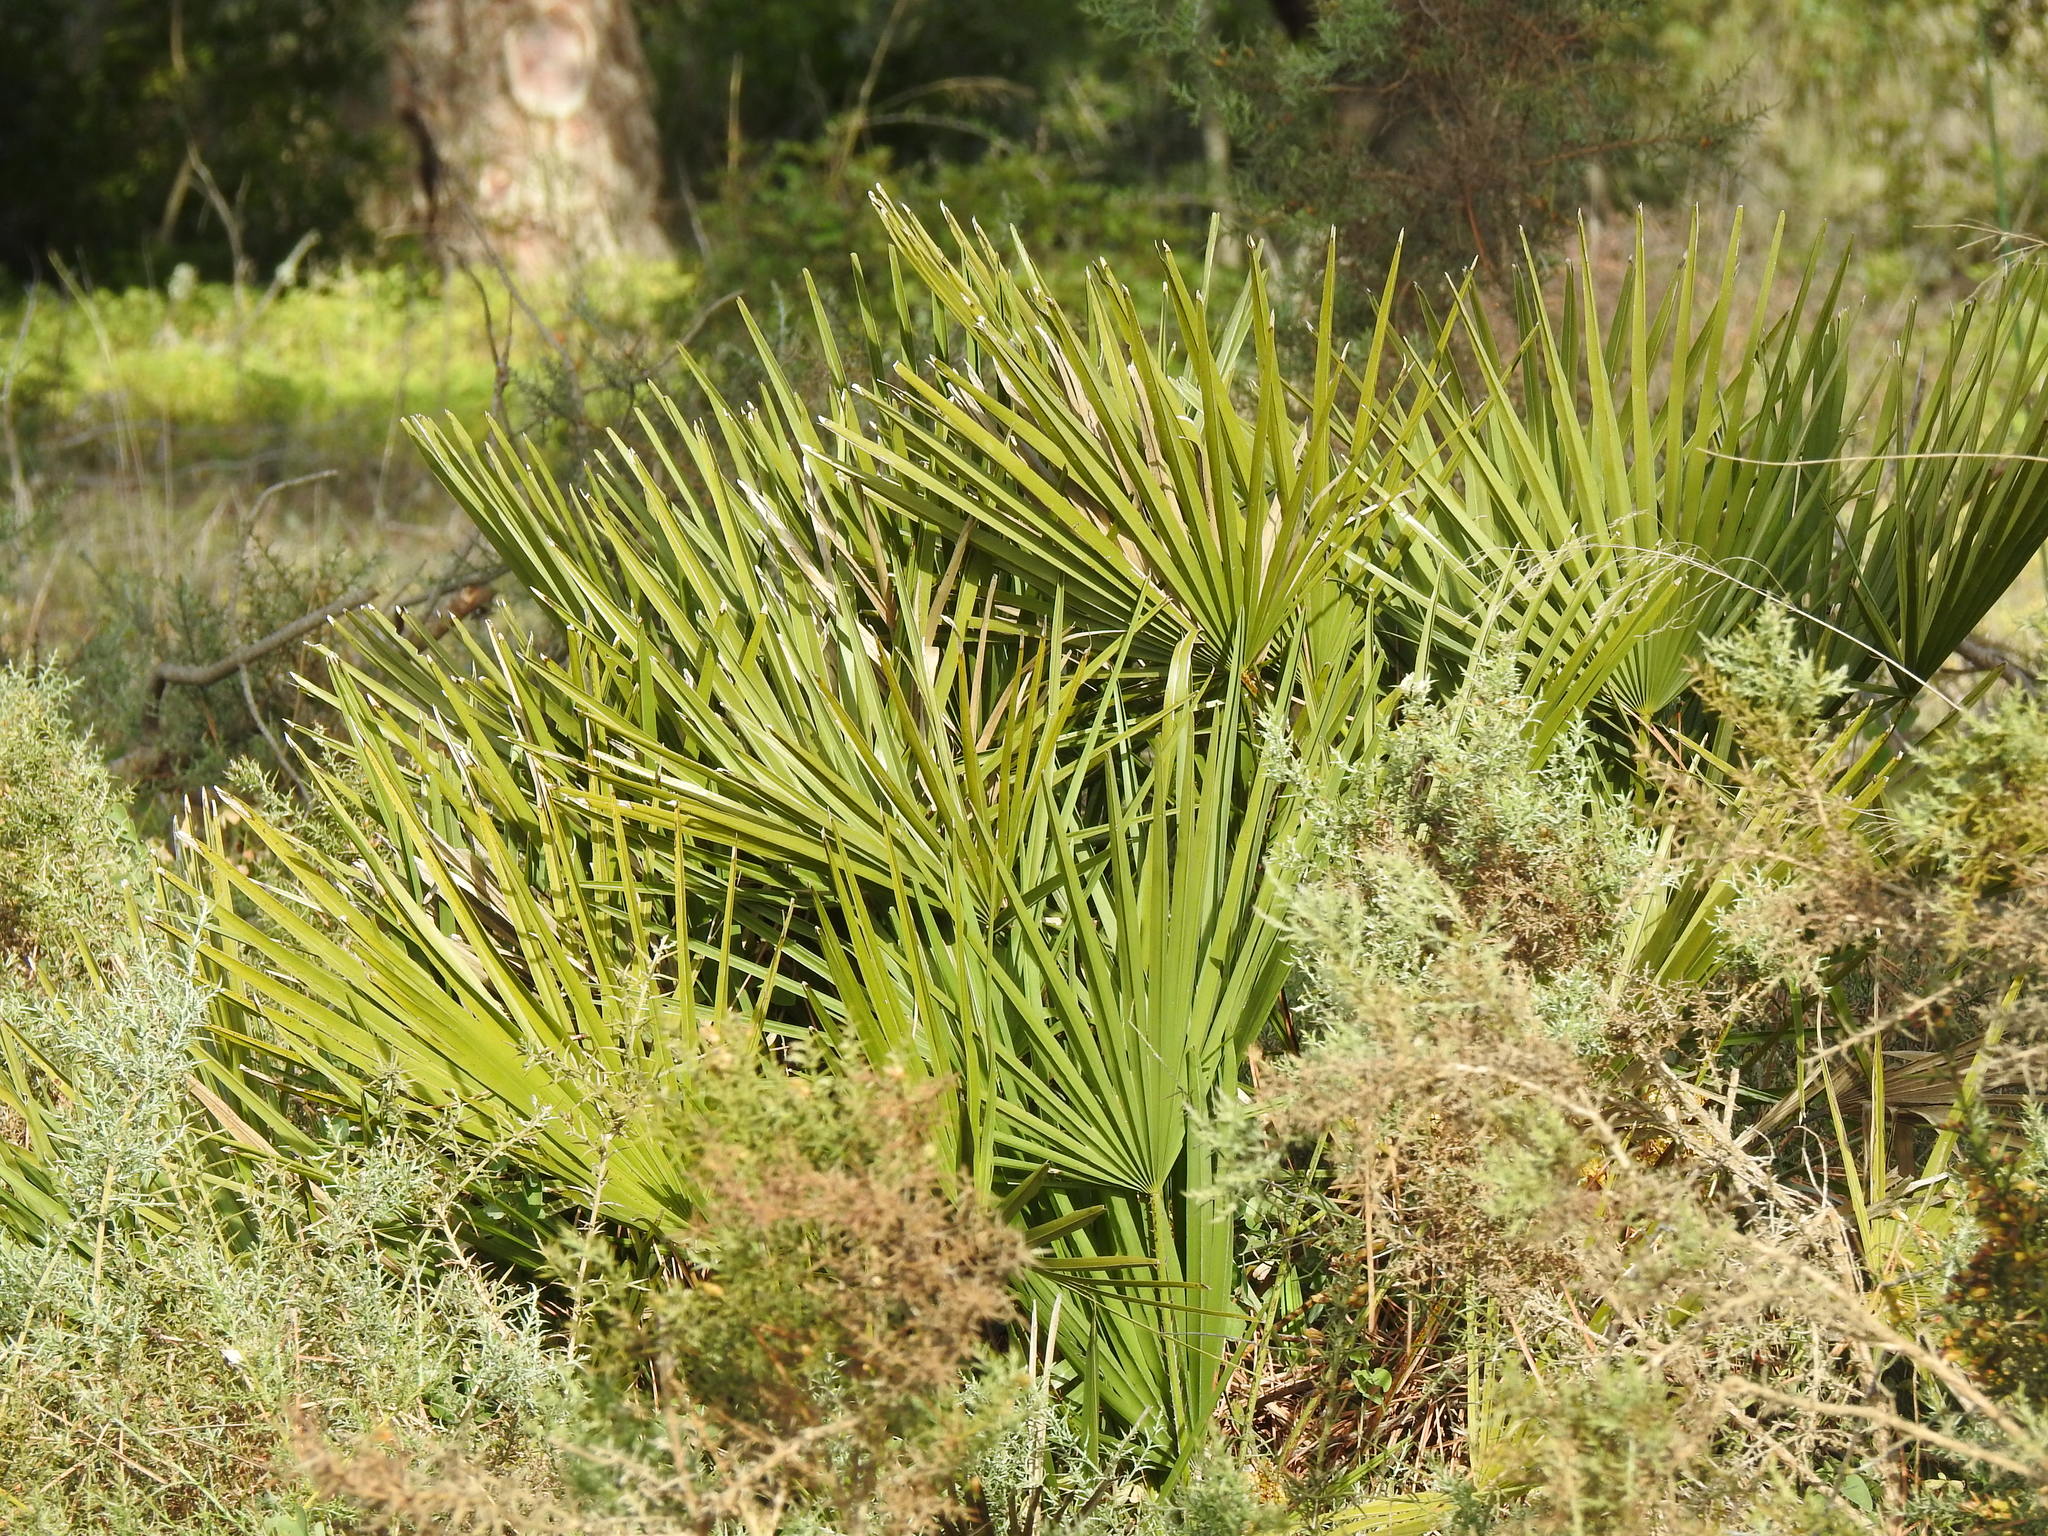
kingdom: Plantae
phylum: Tracheophyta
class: Liliopsida
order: Arecales
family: Arecaceae
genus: Chamaerops
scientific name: Chamaerops humilis
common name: Dwarf fan palm
